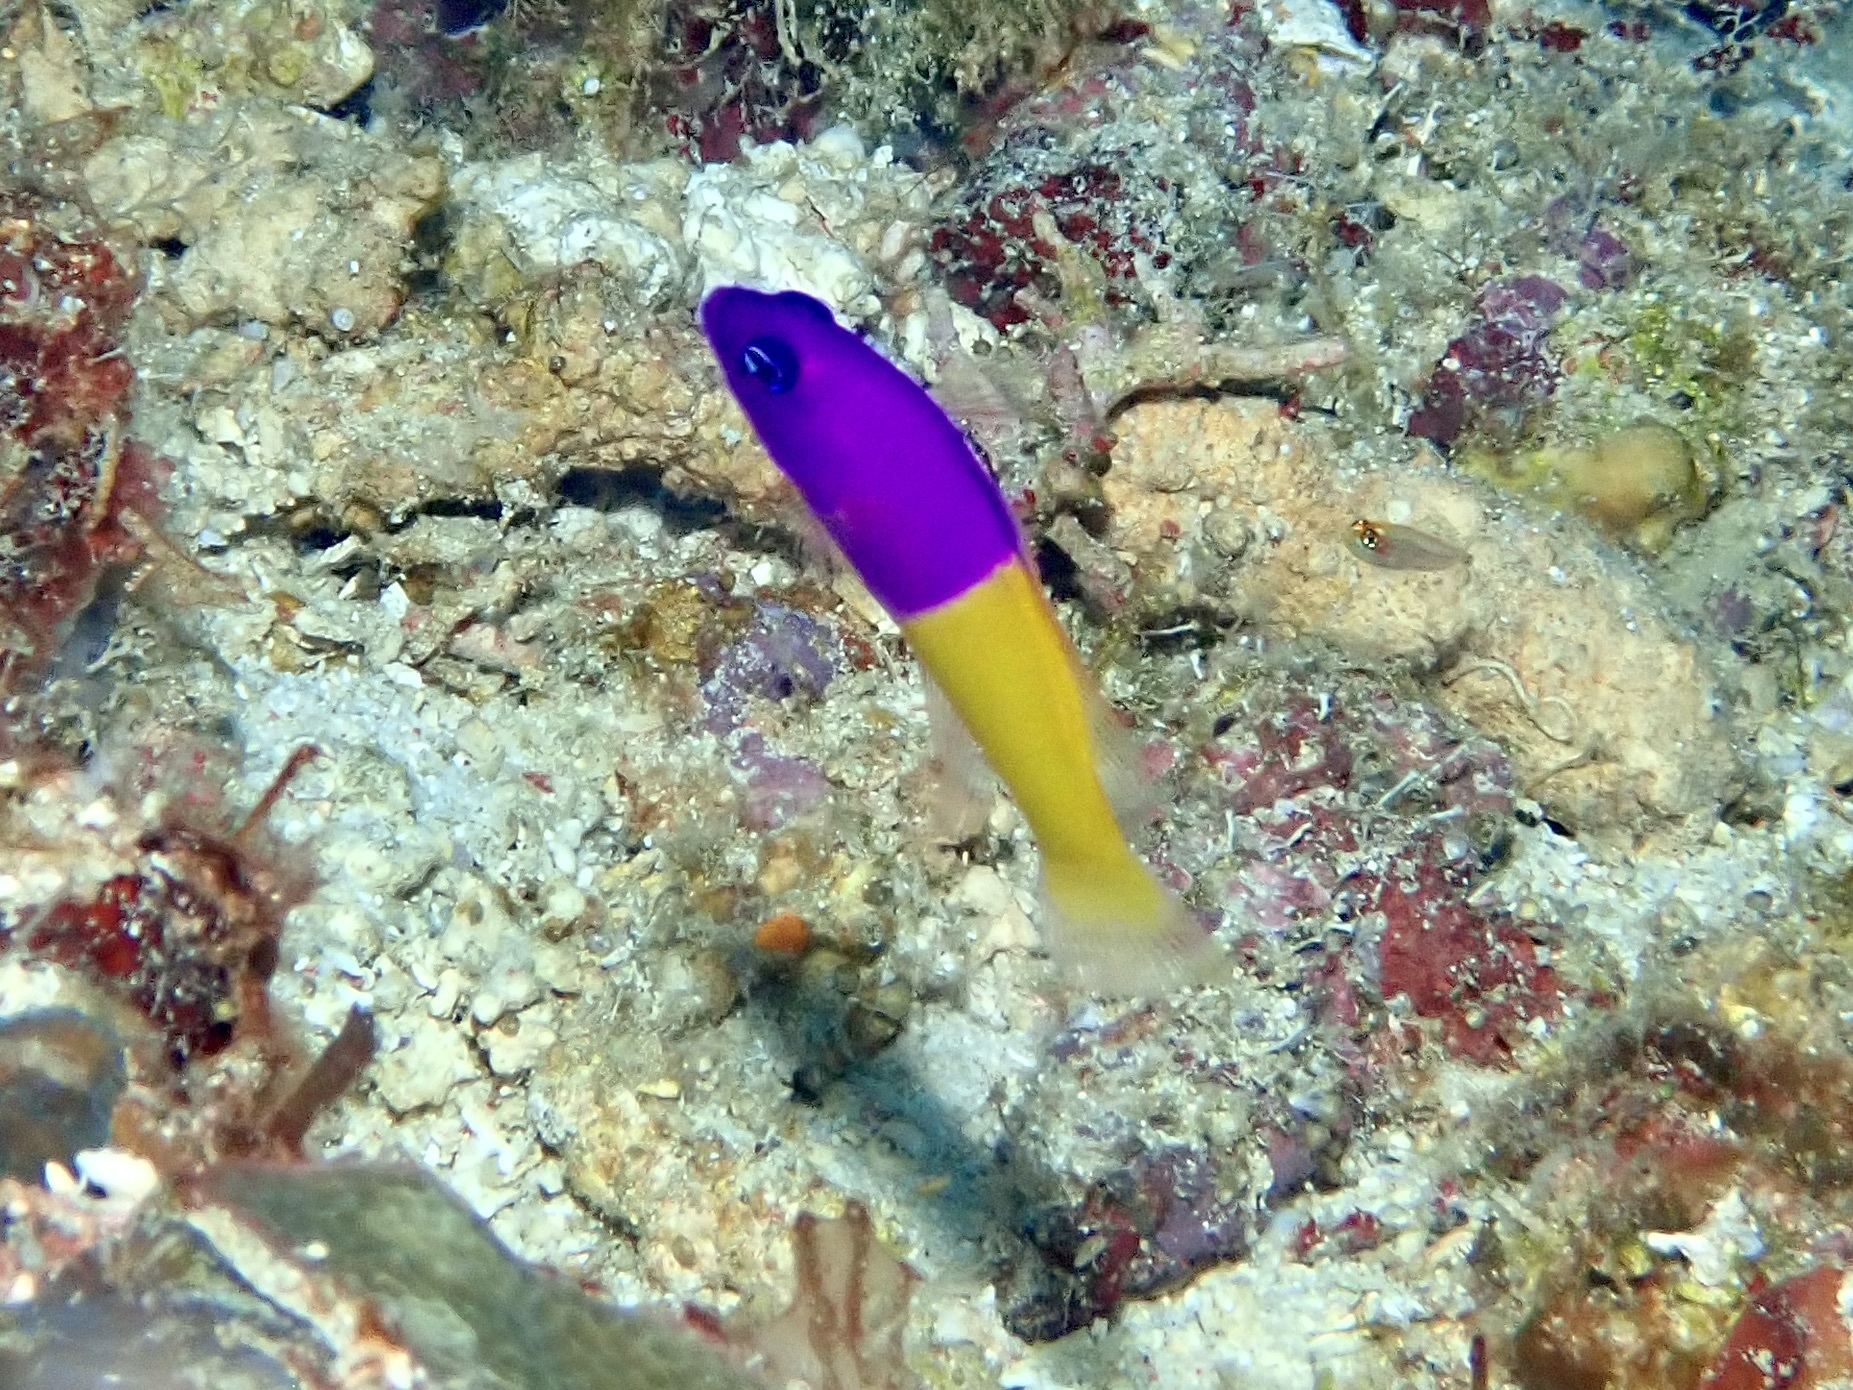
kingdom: Animalia
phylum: Chordata
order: Perciformes
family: Pseudochromidae
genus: Pictichromis
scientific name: Pictichromis paccagnellae
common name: Royal dottyback
